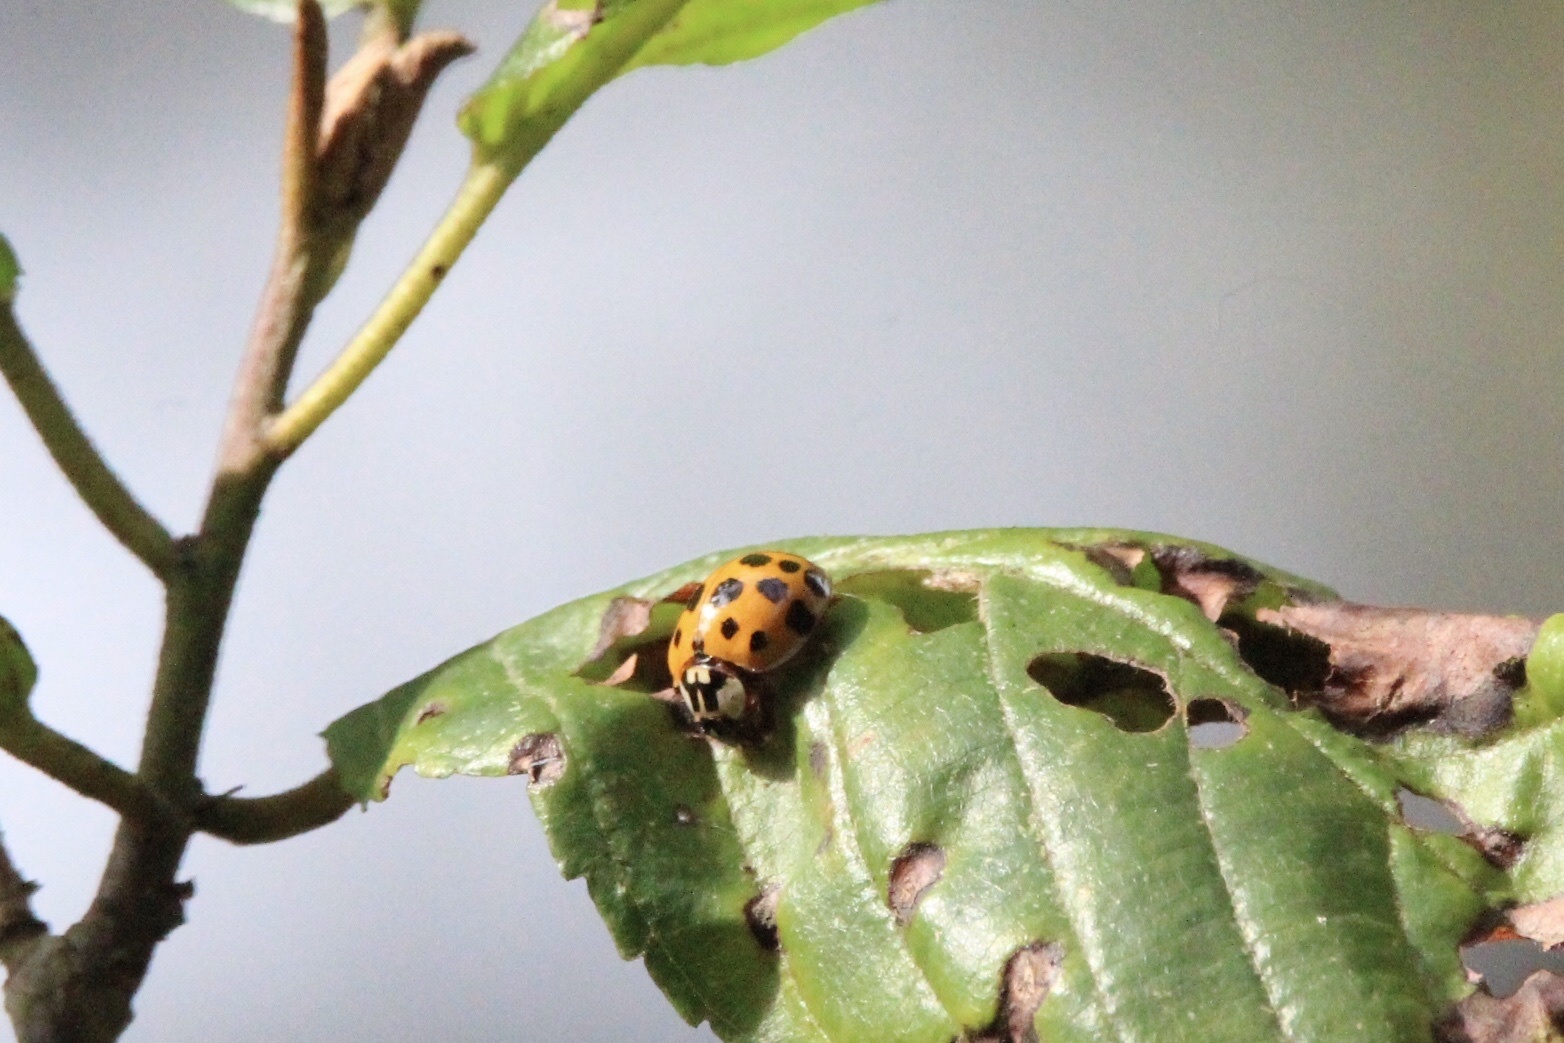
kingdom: Animalia
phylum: Arthropoda
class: Insecta
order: Coleoptera
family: Coccinellidae
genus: Harmonia
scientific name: Harmonia axyridis
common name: Harlequin ladybird
